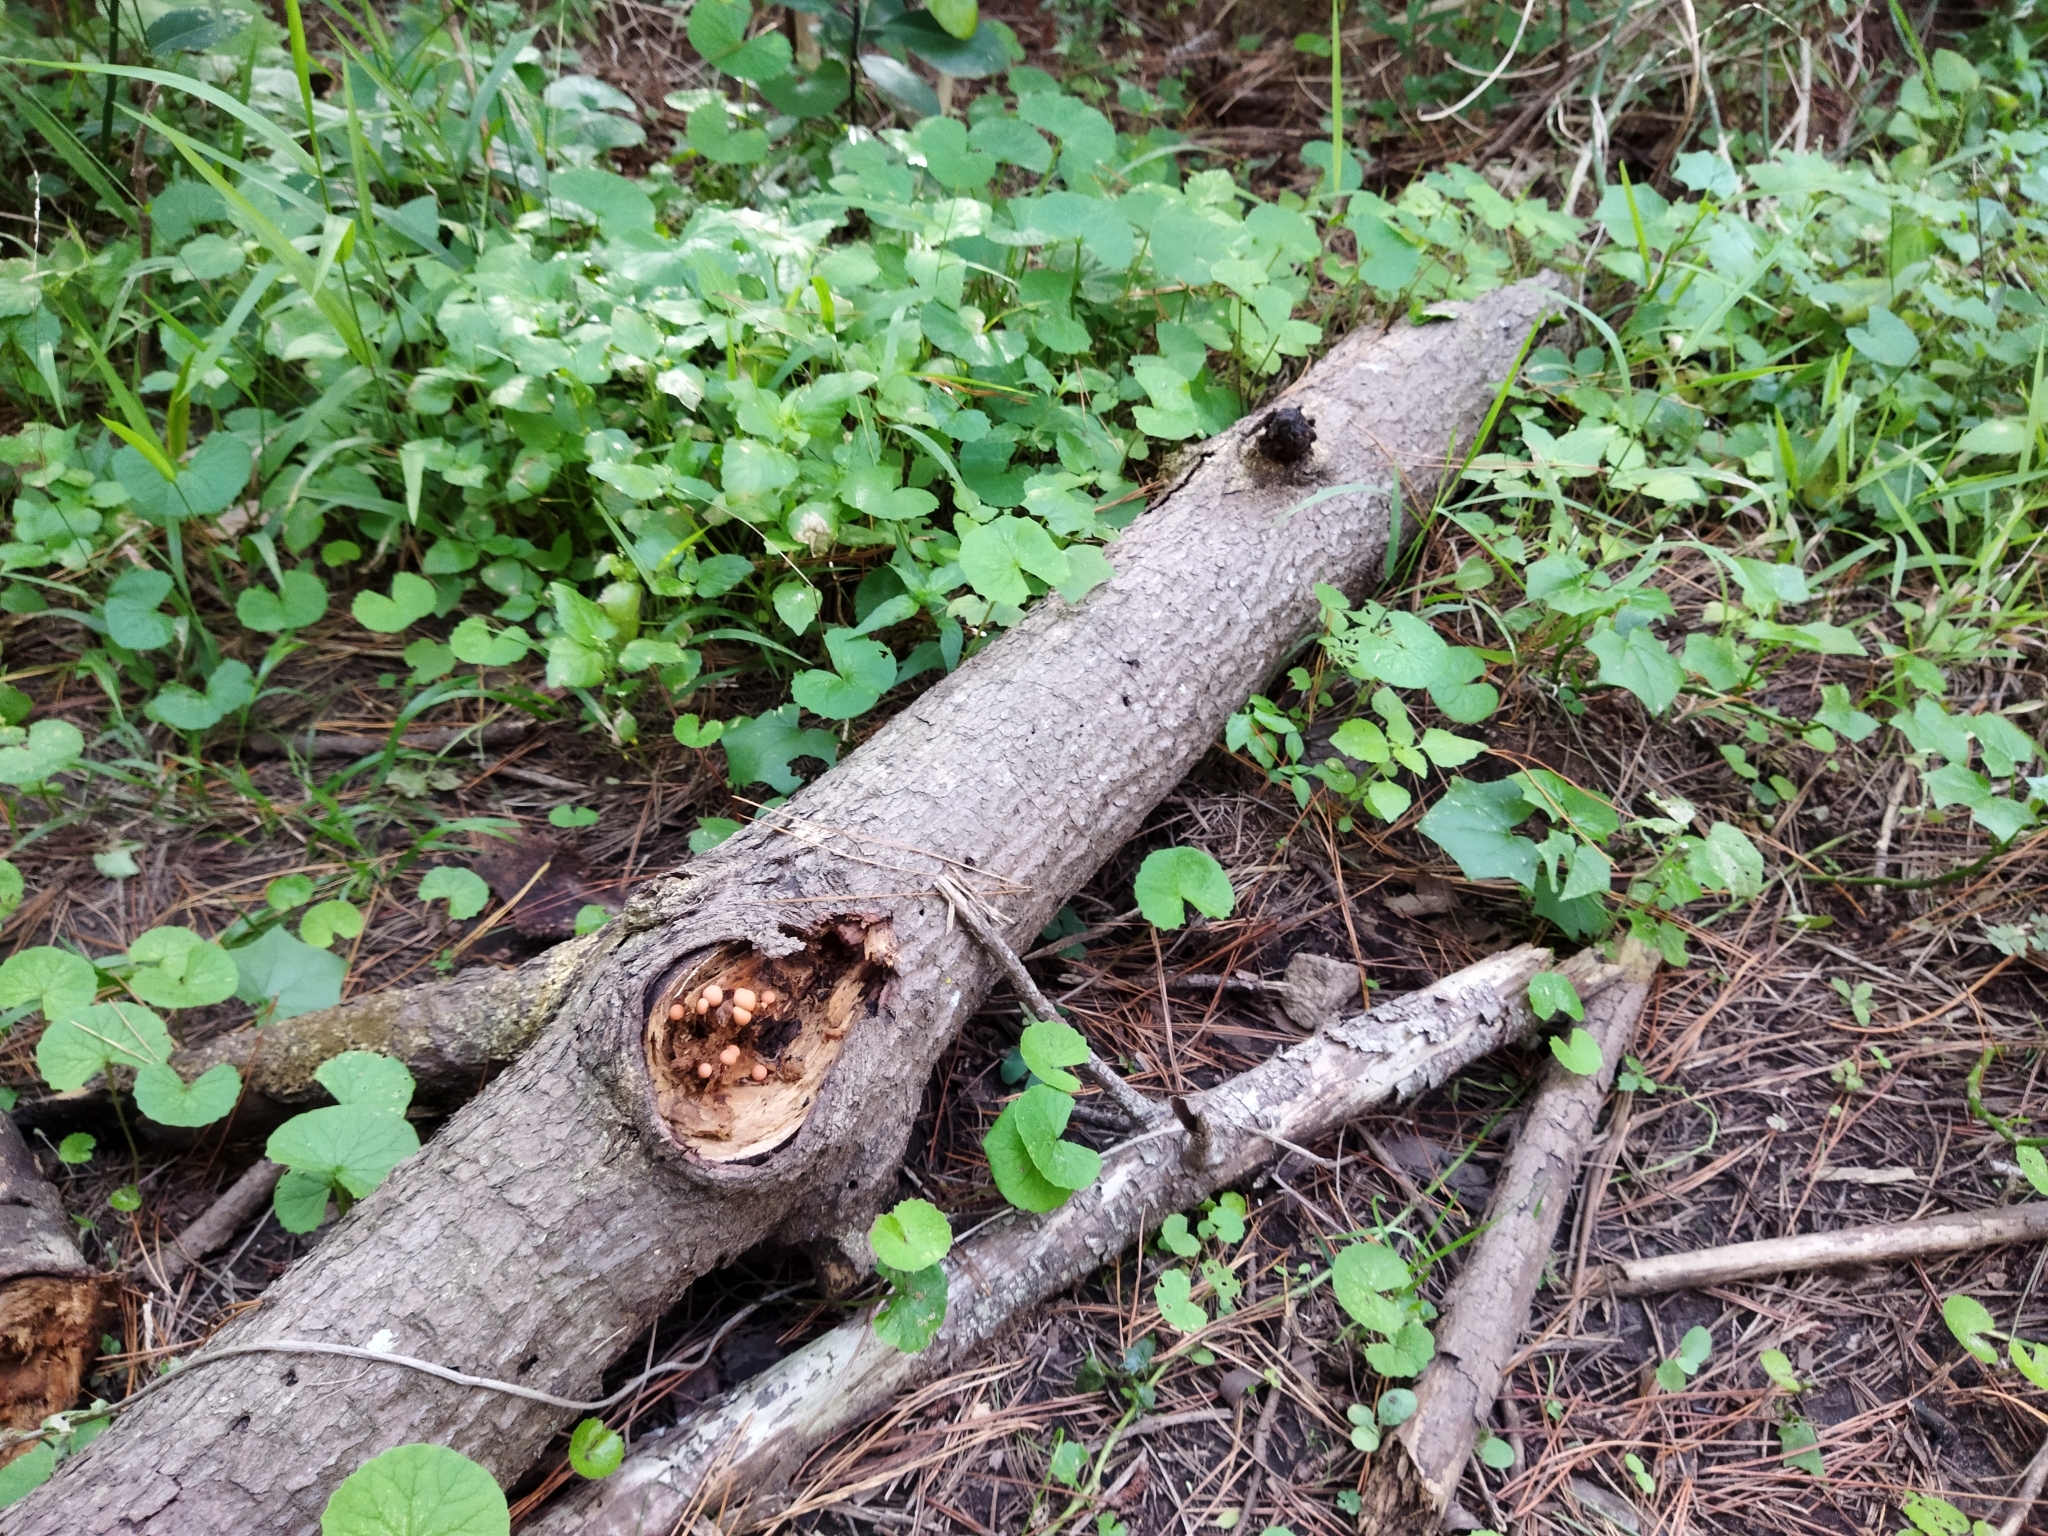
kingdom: Protozoa
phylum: Mycetozoa
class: Myxomycetes
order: Cribrariales
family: Tubiferaceae
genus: Lycogala
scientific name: Lycogala epidendrum
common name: Wolf's milk
